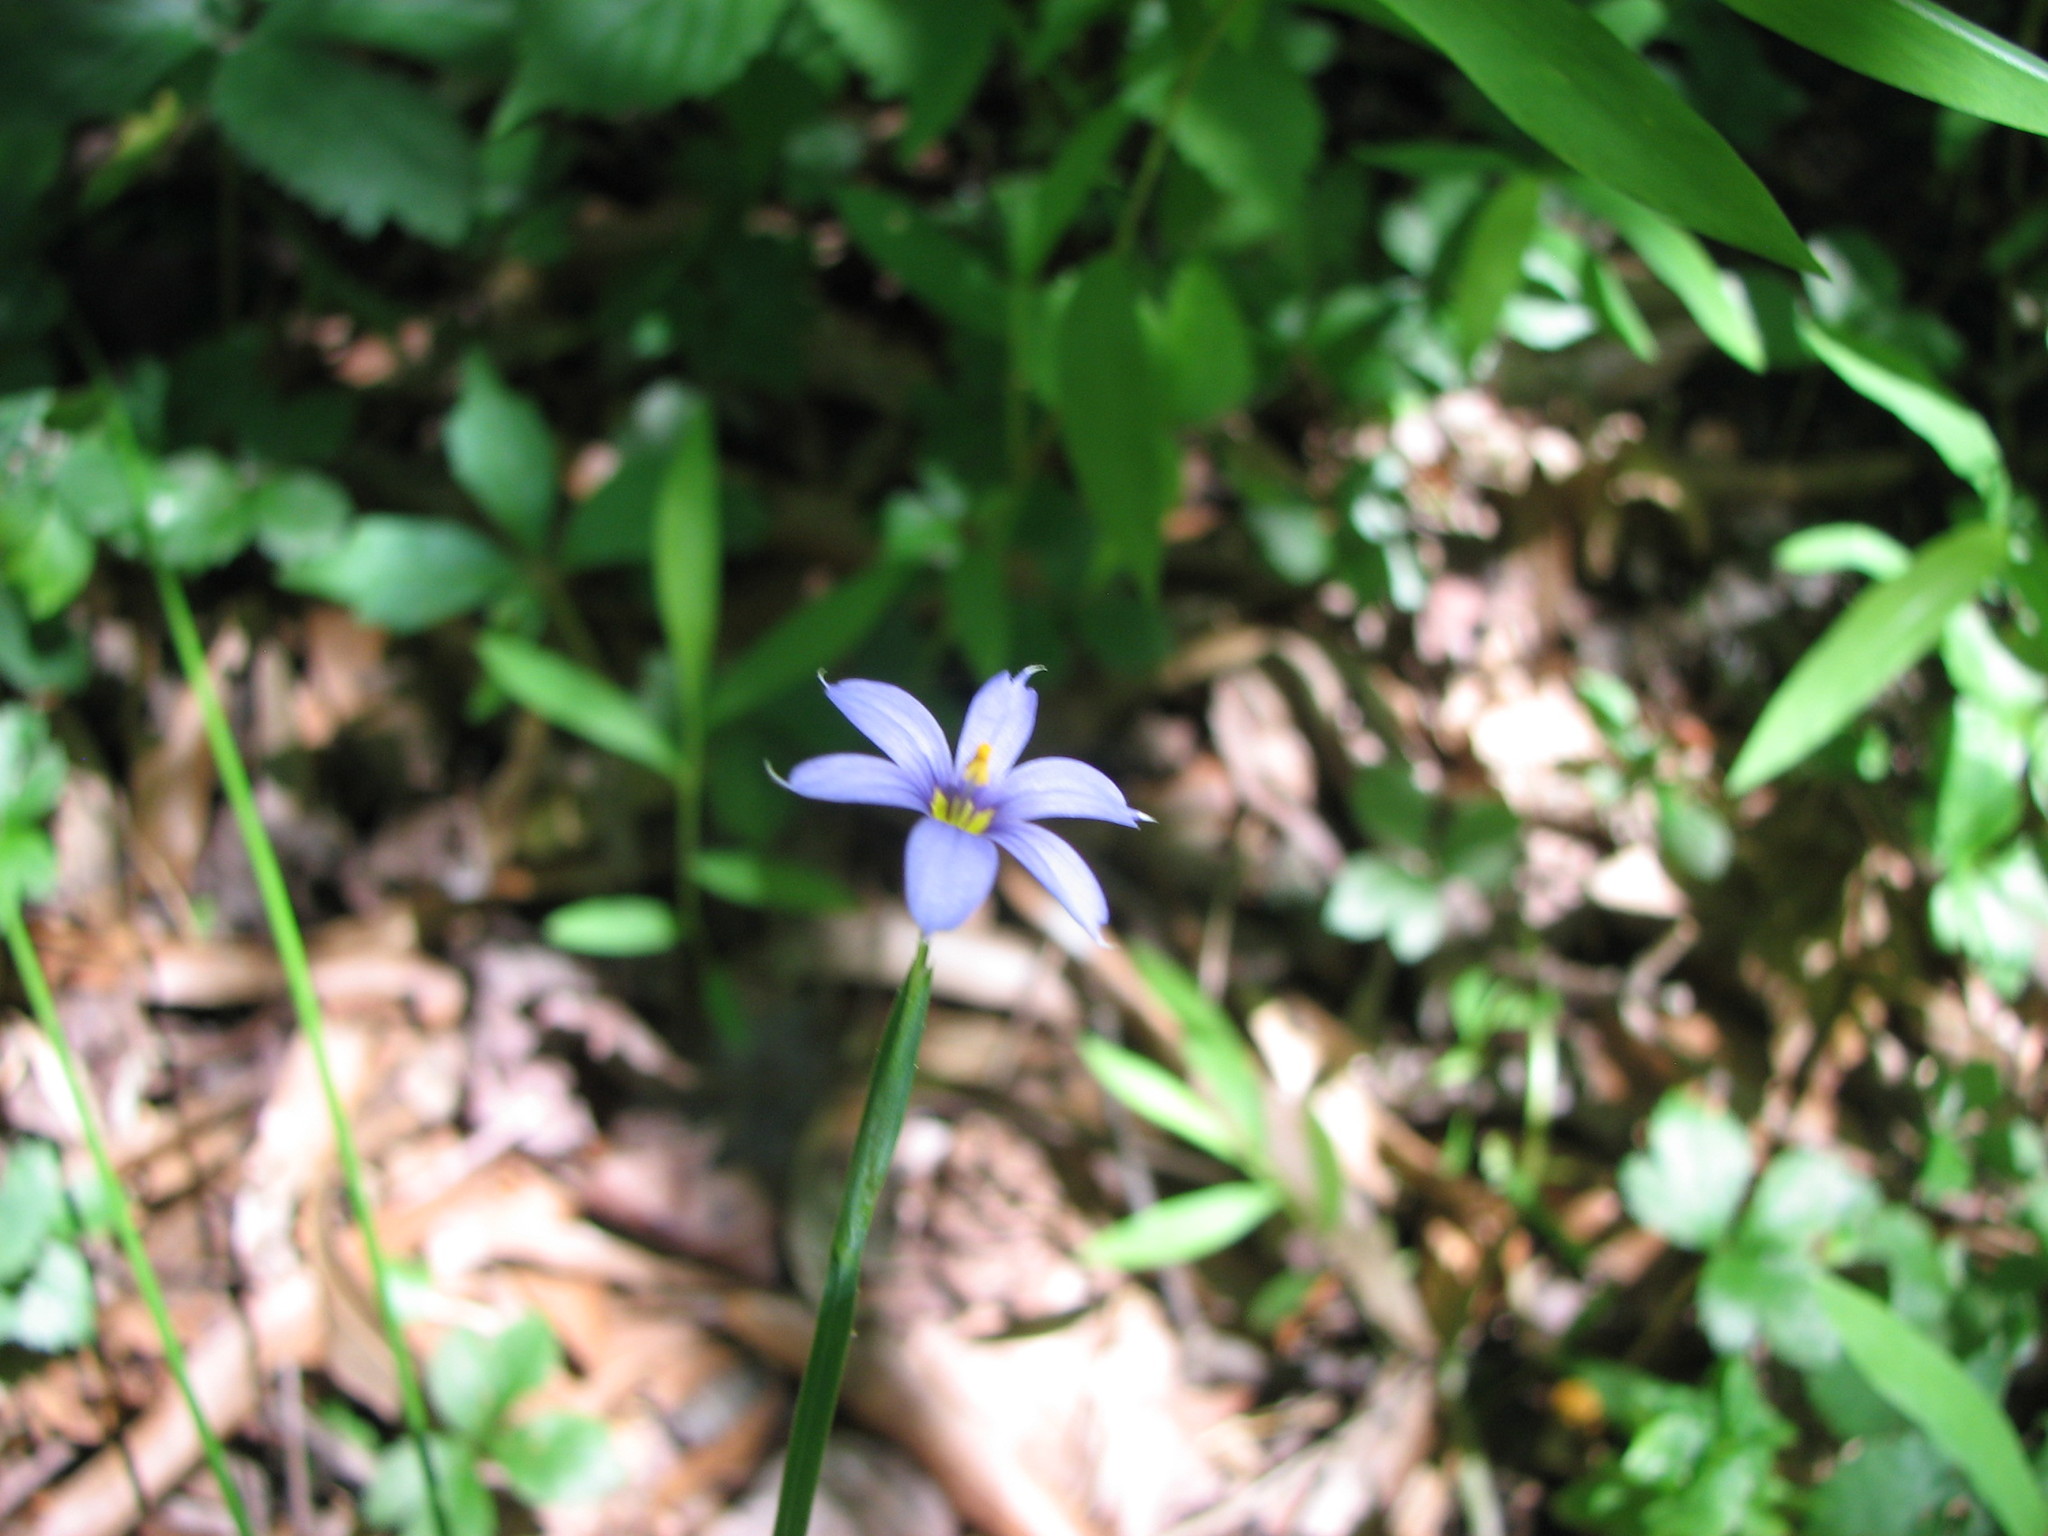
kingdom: Plantae
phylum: Tracheophyta
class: Liliopsida
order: Asparagales
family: Iridaceae
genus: Sisyrinchium
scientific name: Sisyrinchium atlanticum
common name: Eastern blue-eyed-grass
